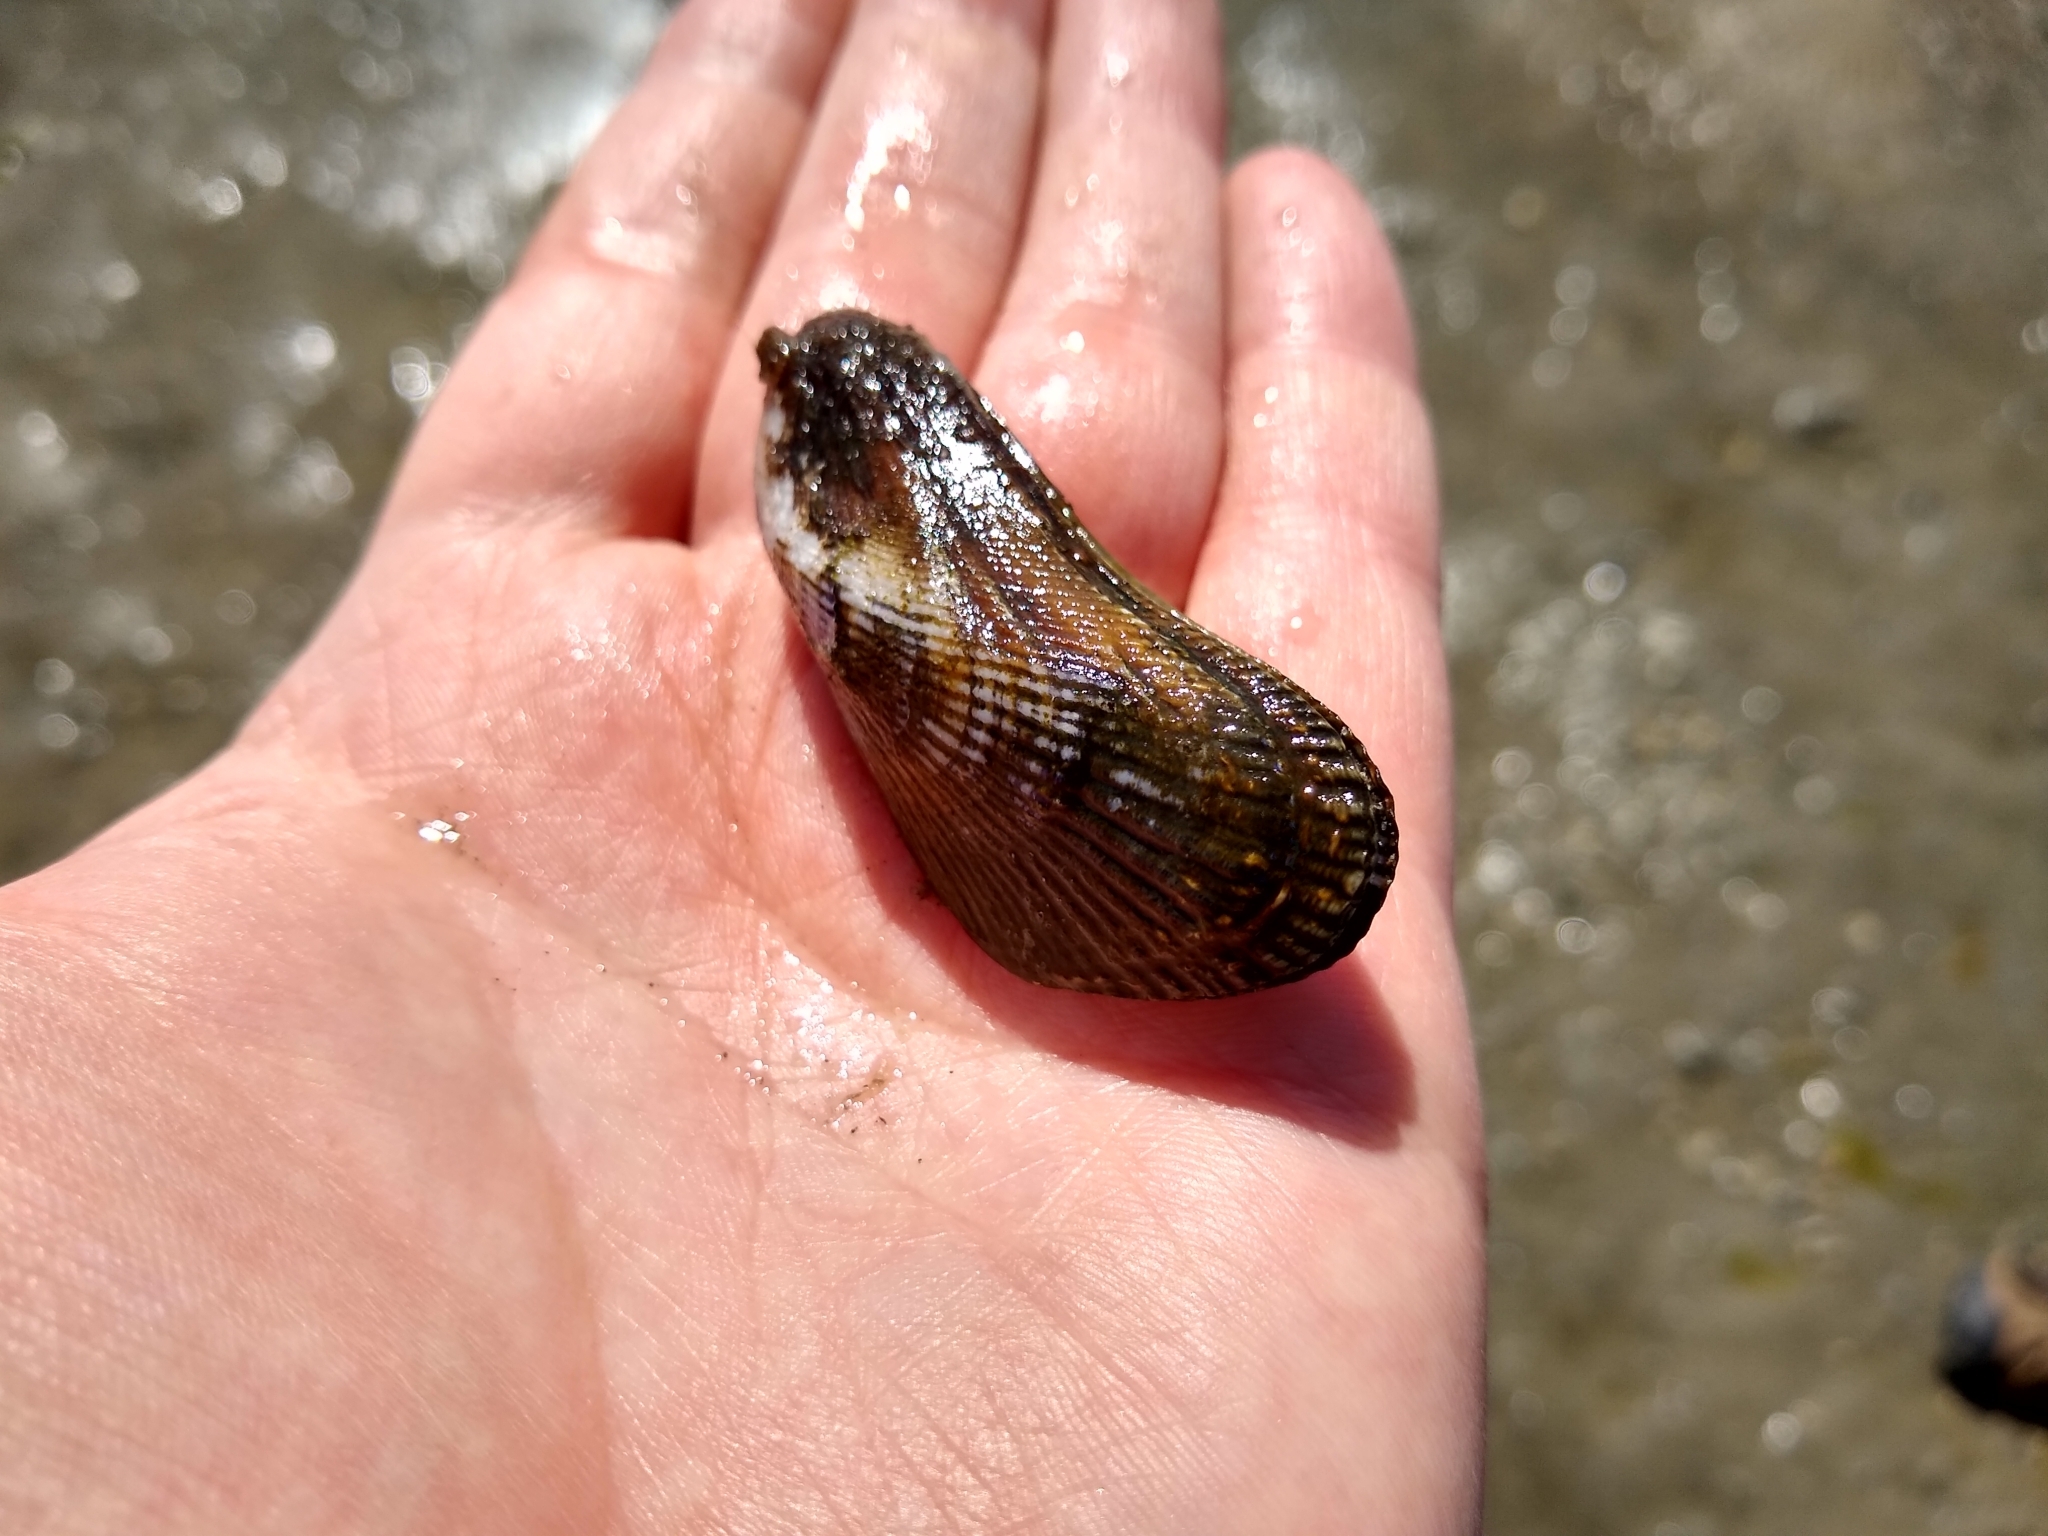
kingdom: Animalia
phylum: Mollusca
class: Bivalvia
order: Mytilida
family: Mytilidae
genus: Geukensia
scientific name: Geukensia demissa
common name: Ribbed mussel
